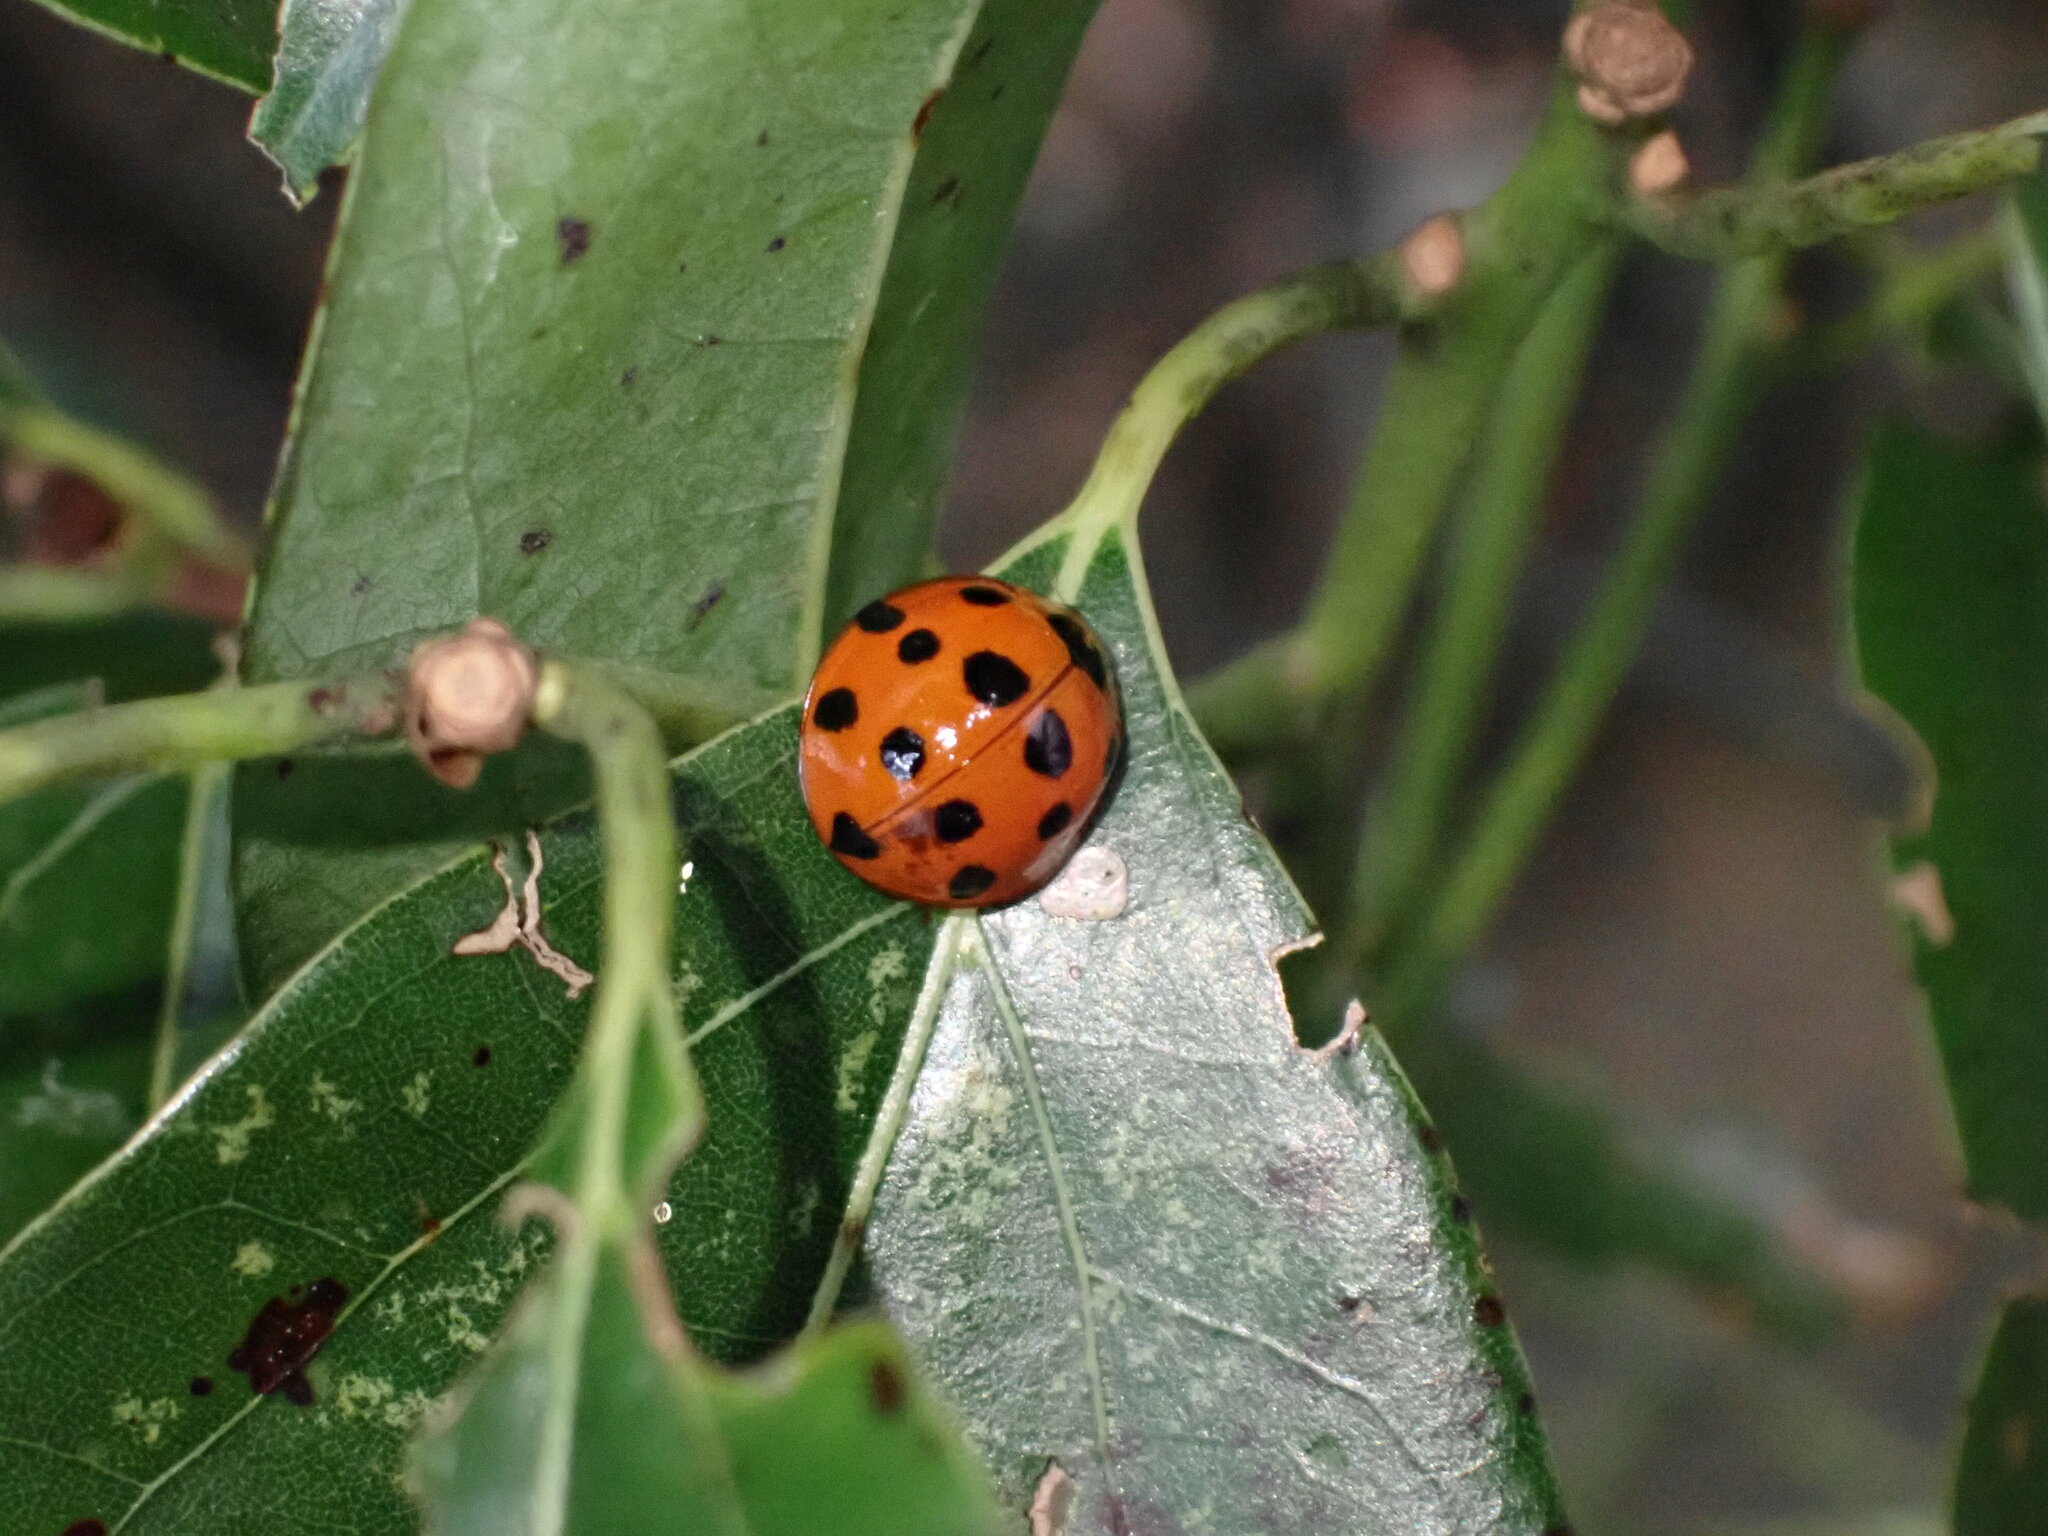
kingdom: Animalia
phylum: Arthropoda
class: Insecta
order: Coleoptera
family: Coccinellidae
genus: Harmonia
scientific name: Harmonia dimidiata
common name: Ladybird beetle
